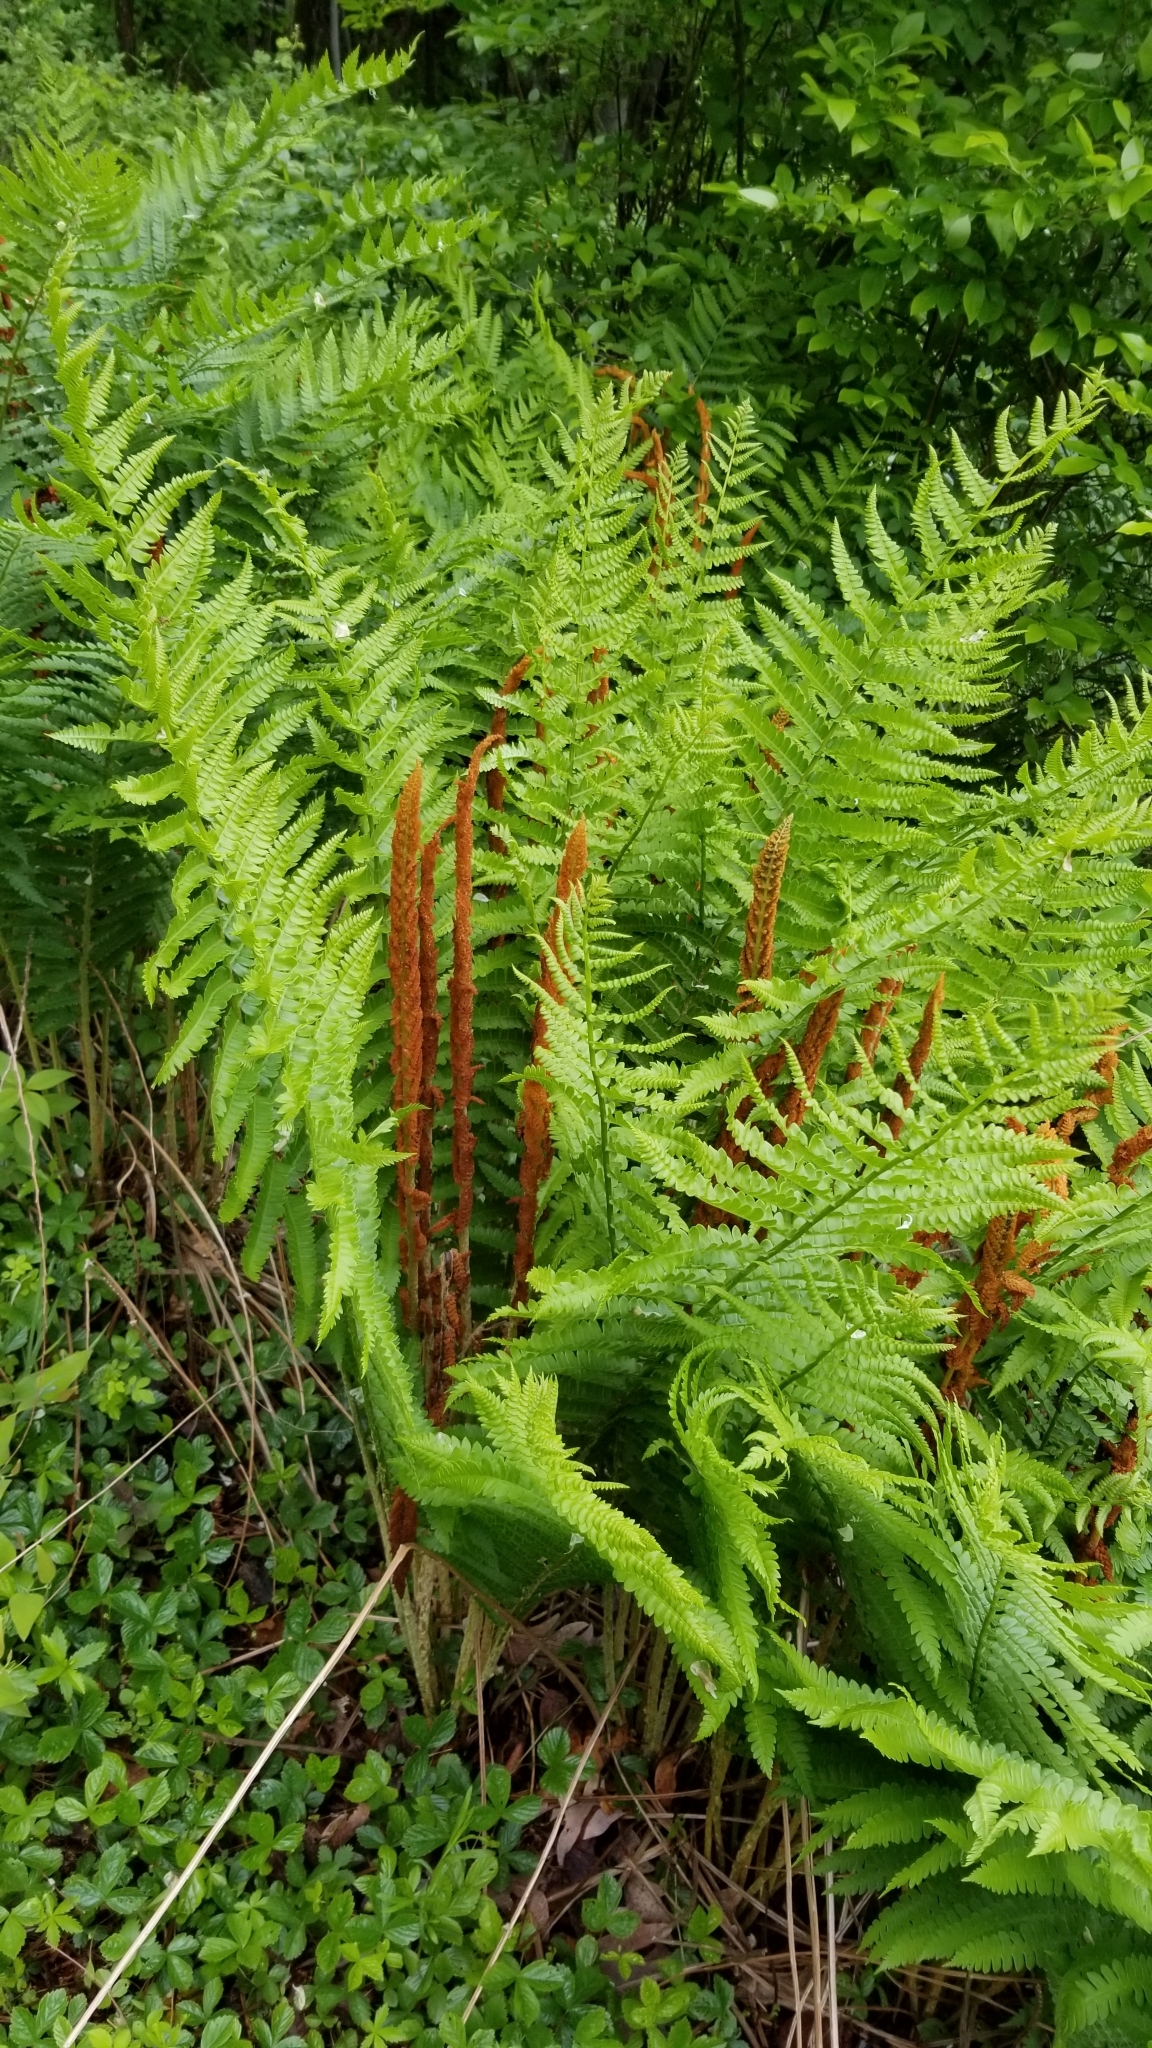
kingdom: Plantae
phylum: Tracheophyta
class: Polypodiopsida
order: Osmundales
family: Osmundaceae
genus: Osmundastrum
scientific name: Osmundastrum cinnamomeum
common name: Cinnamon fern
